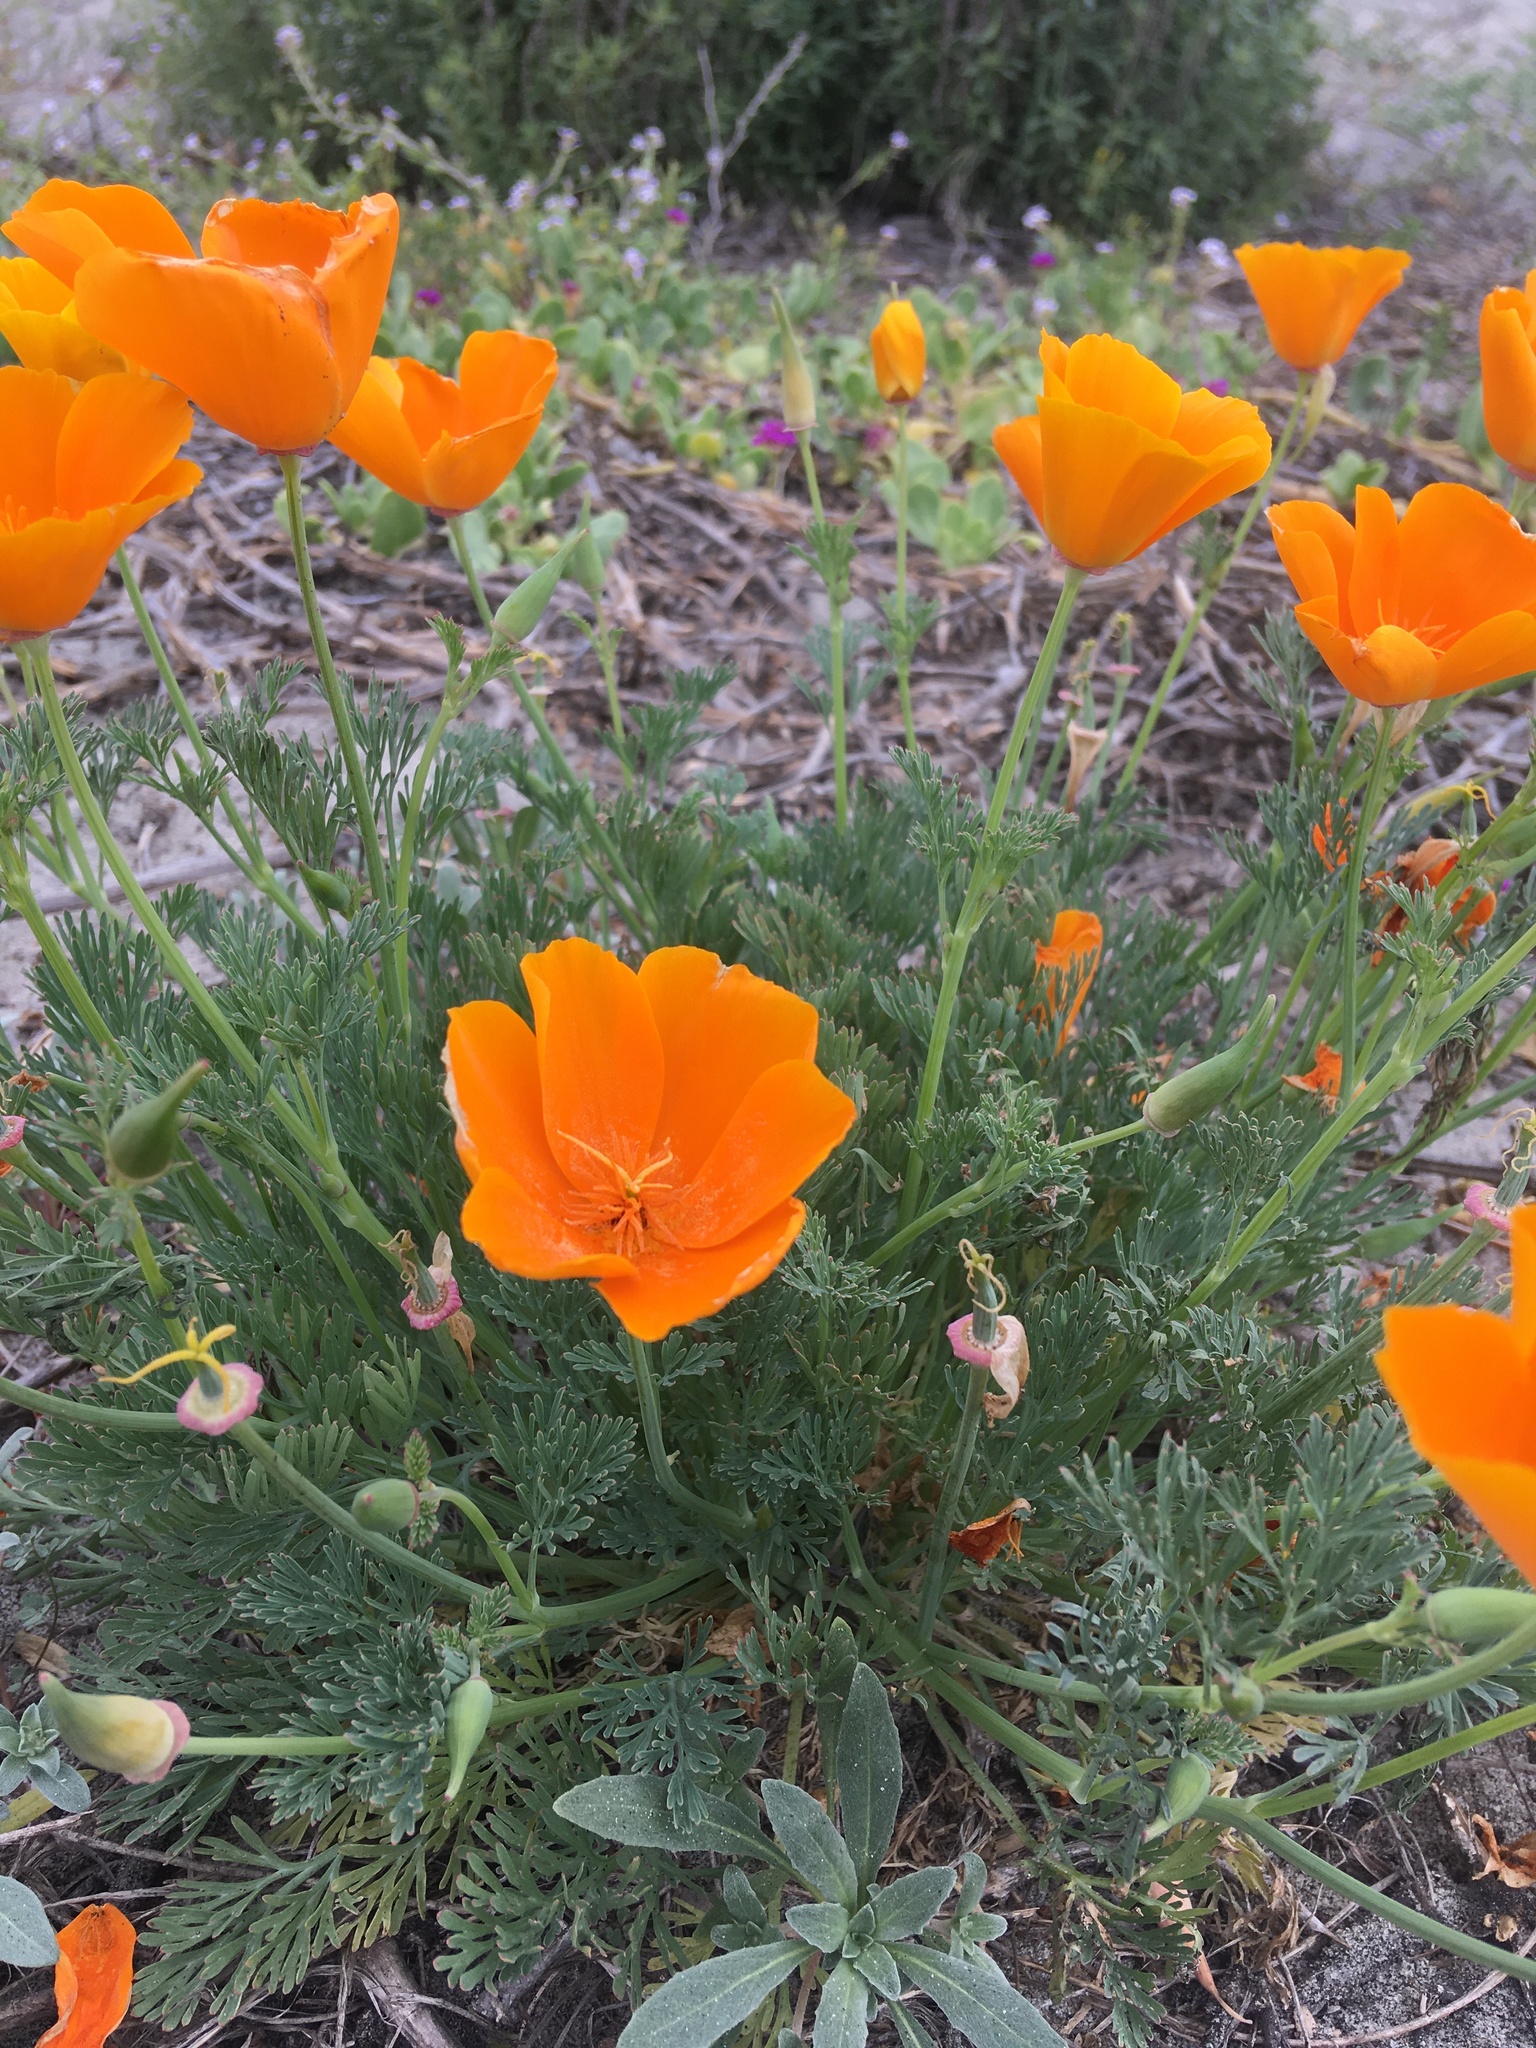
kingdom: Plantae
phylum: Tracheophyta
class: Magnoliopsida
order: Ranunculales
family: Papaveraceae
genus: Eschscholzia
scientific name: Eschscholzia californica
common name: California poppy
